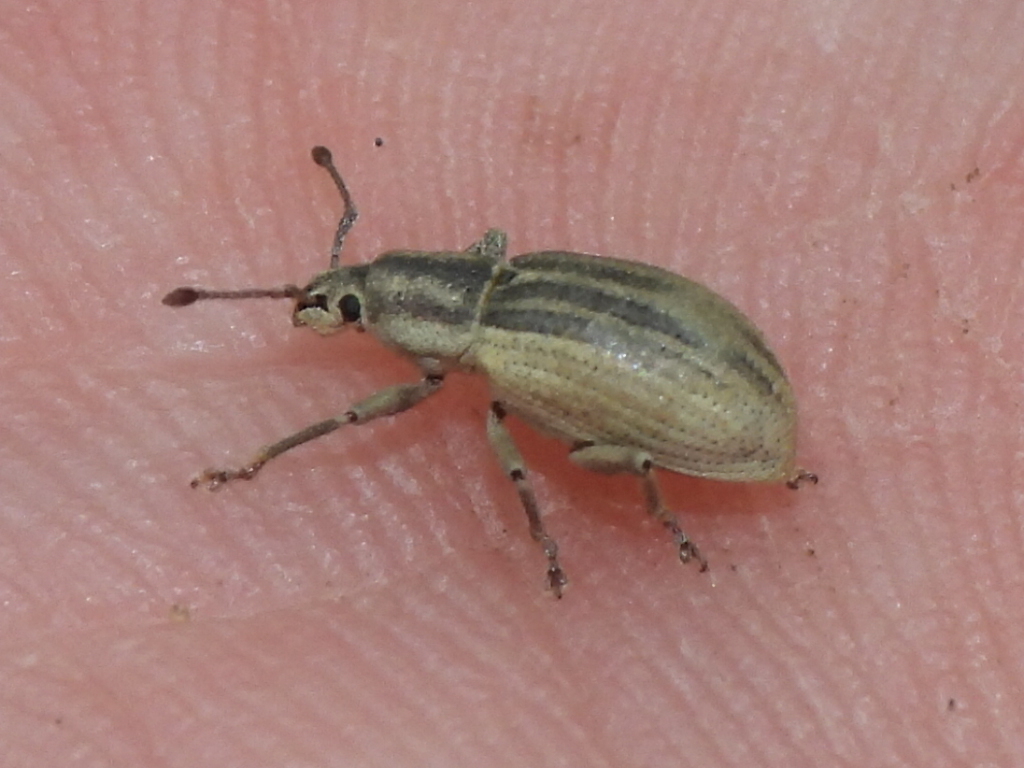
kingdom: Animalia
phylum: Arthropoda
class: Insecta
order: Coleoptera
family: Curculionidae
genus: Aphrastus
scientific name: Aphrastus taeniatus
